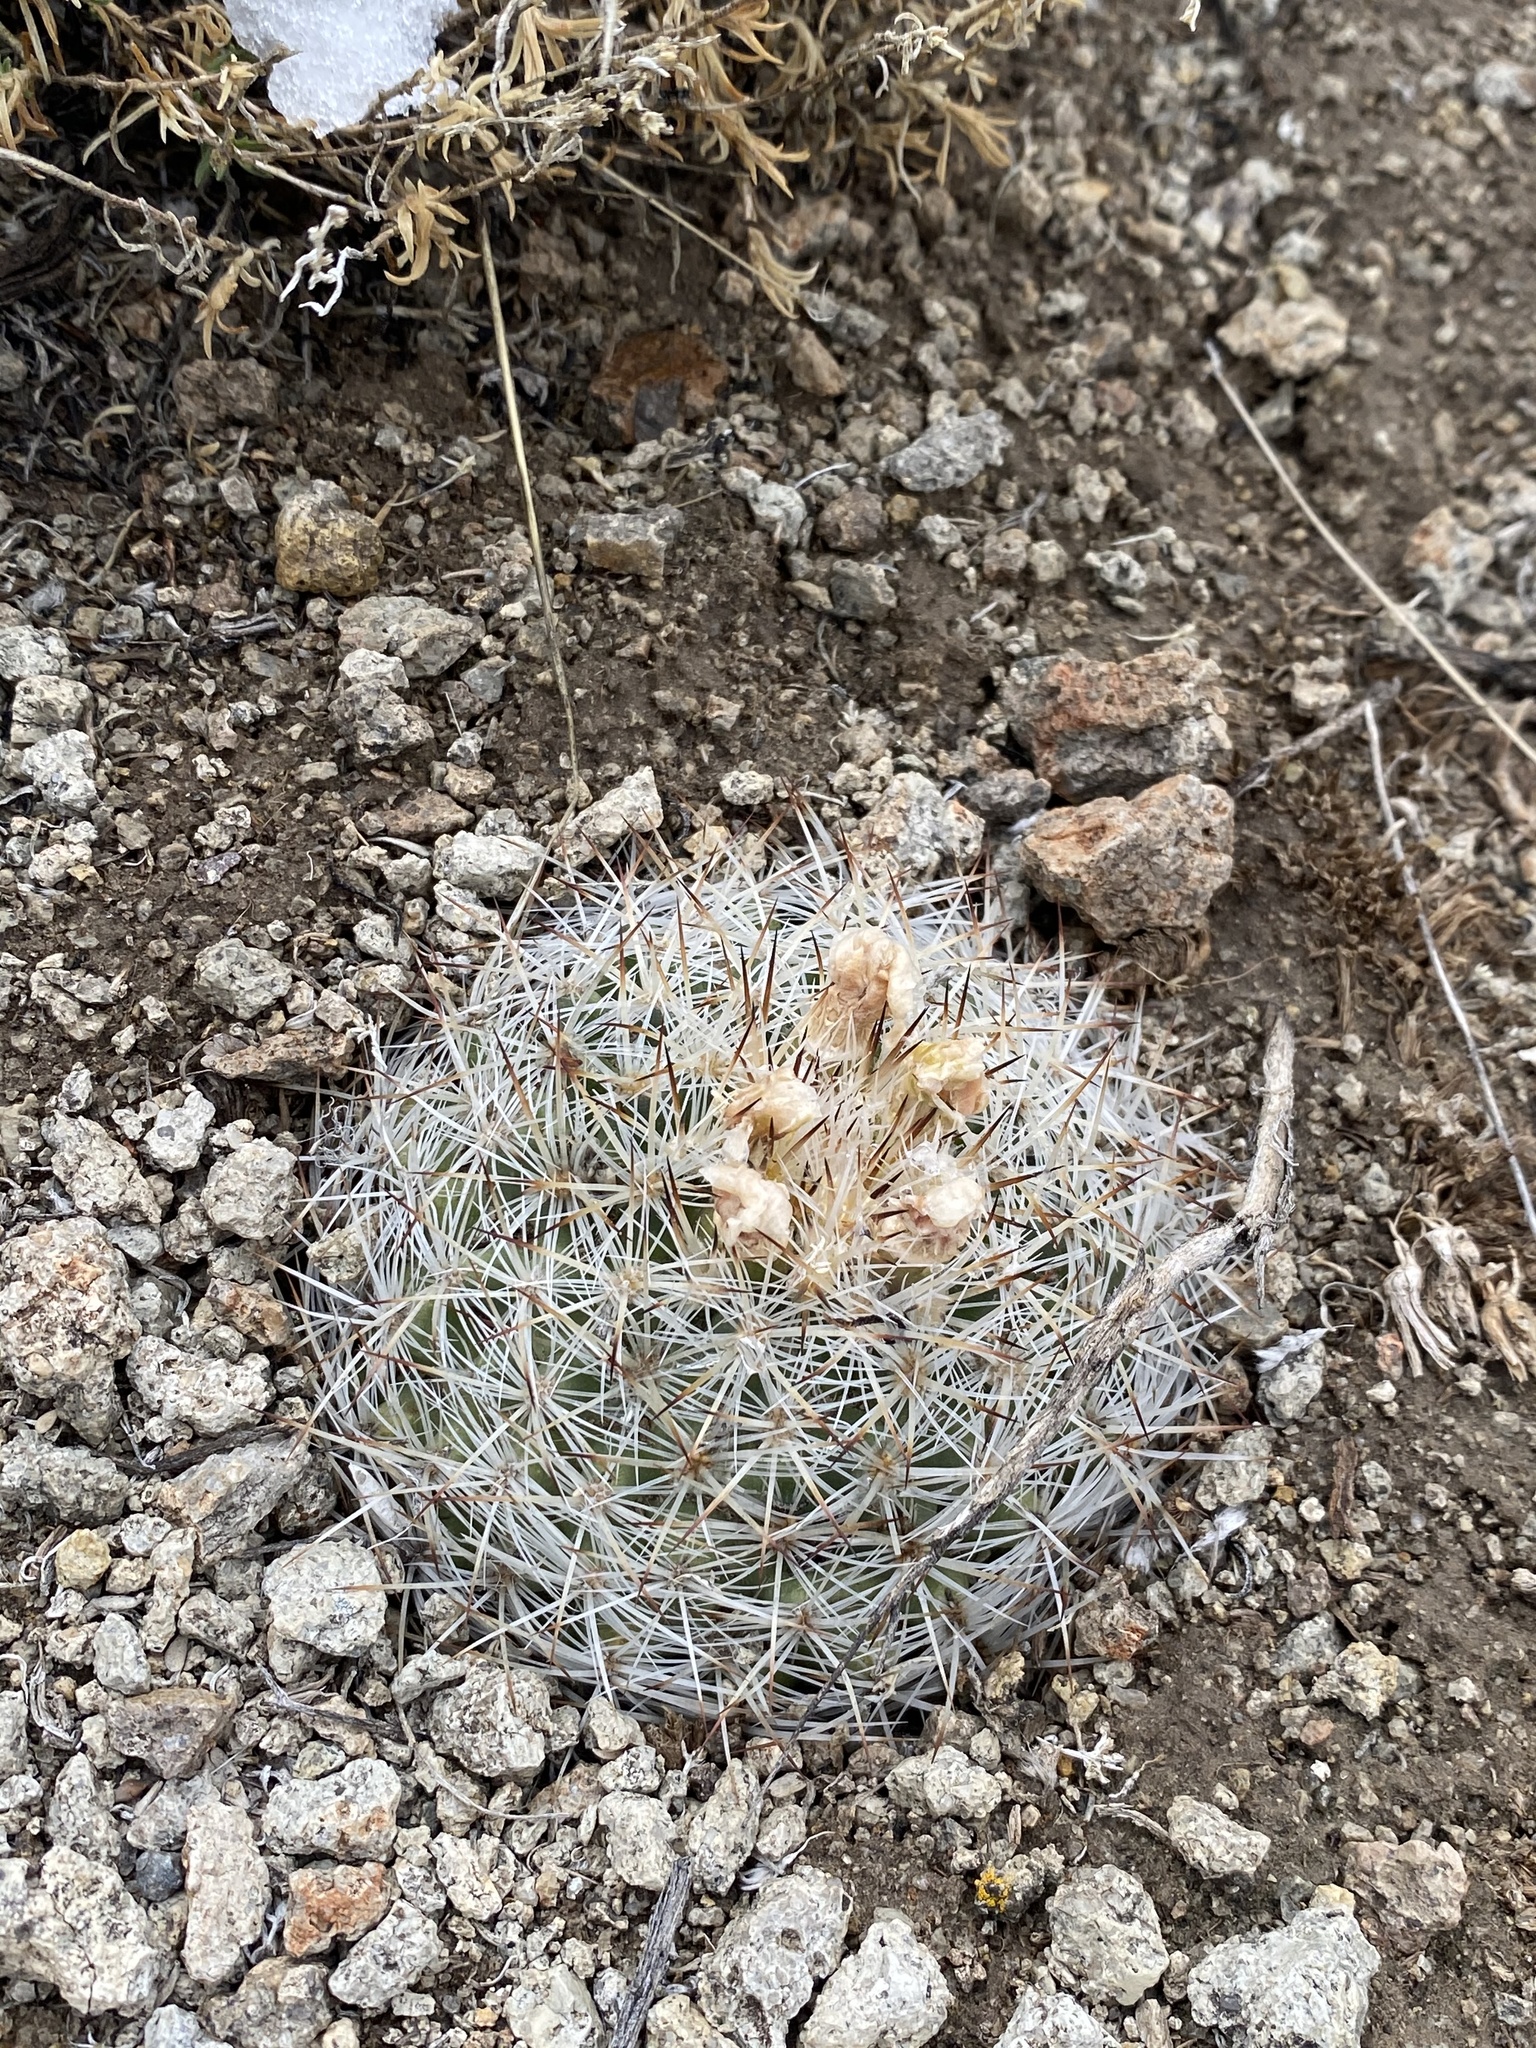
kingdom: Plantae
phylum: Tracheophyta
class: Magnoliopsida
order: Caryophyllales
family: Cactaceae
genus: Pediocactus
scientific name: Pediocactus simpsonii
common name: Simpson's hedgehog cactus
